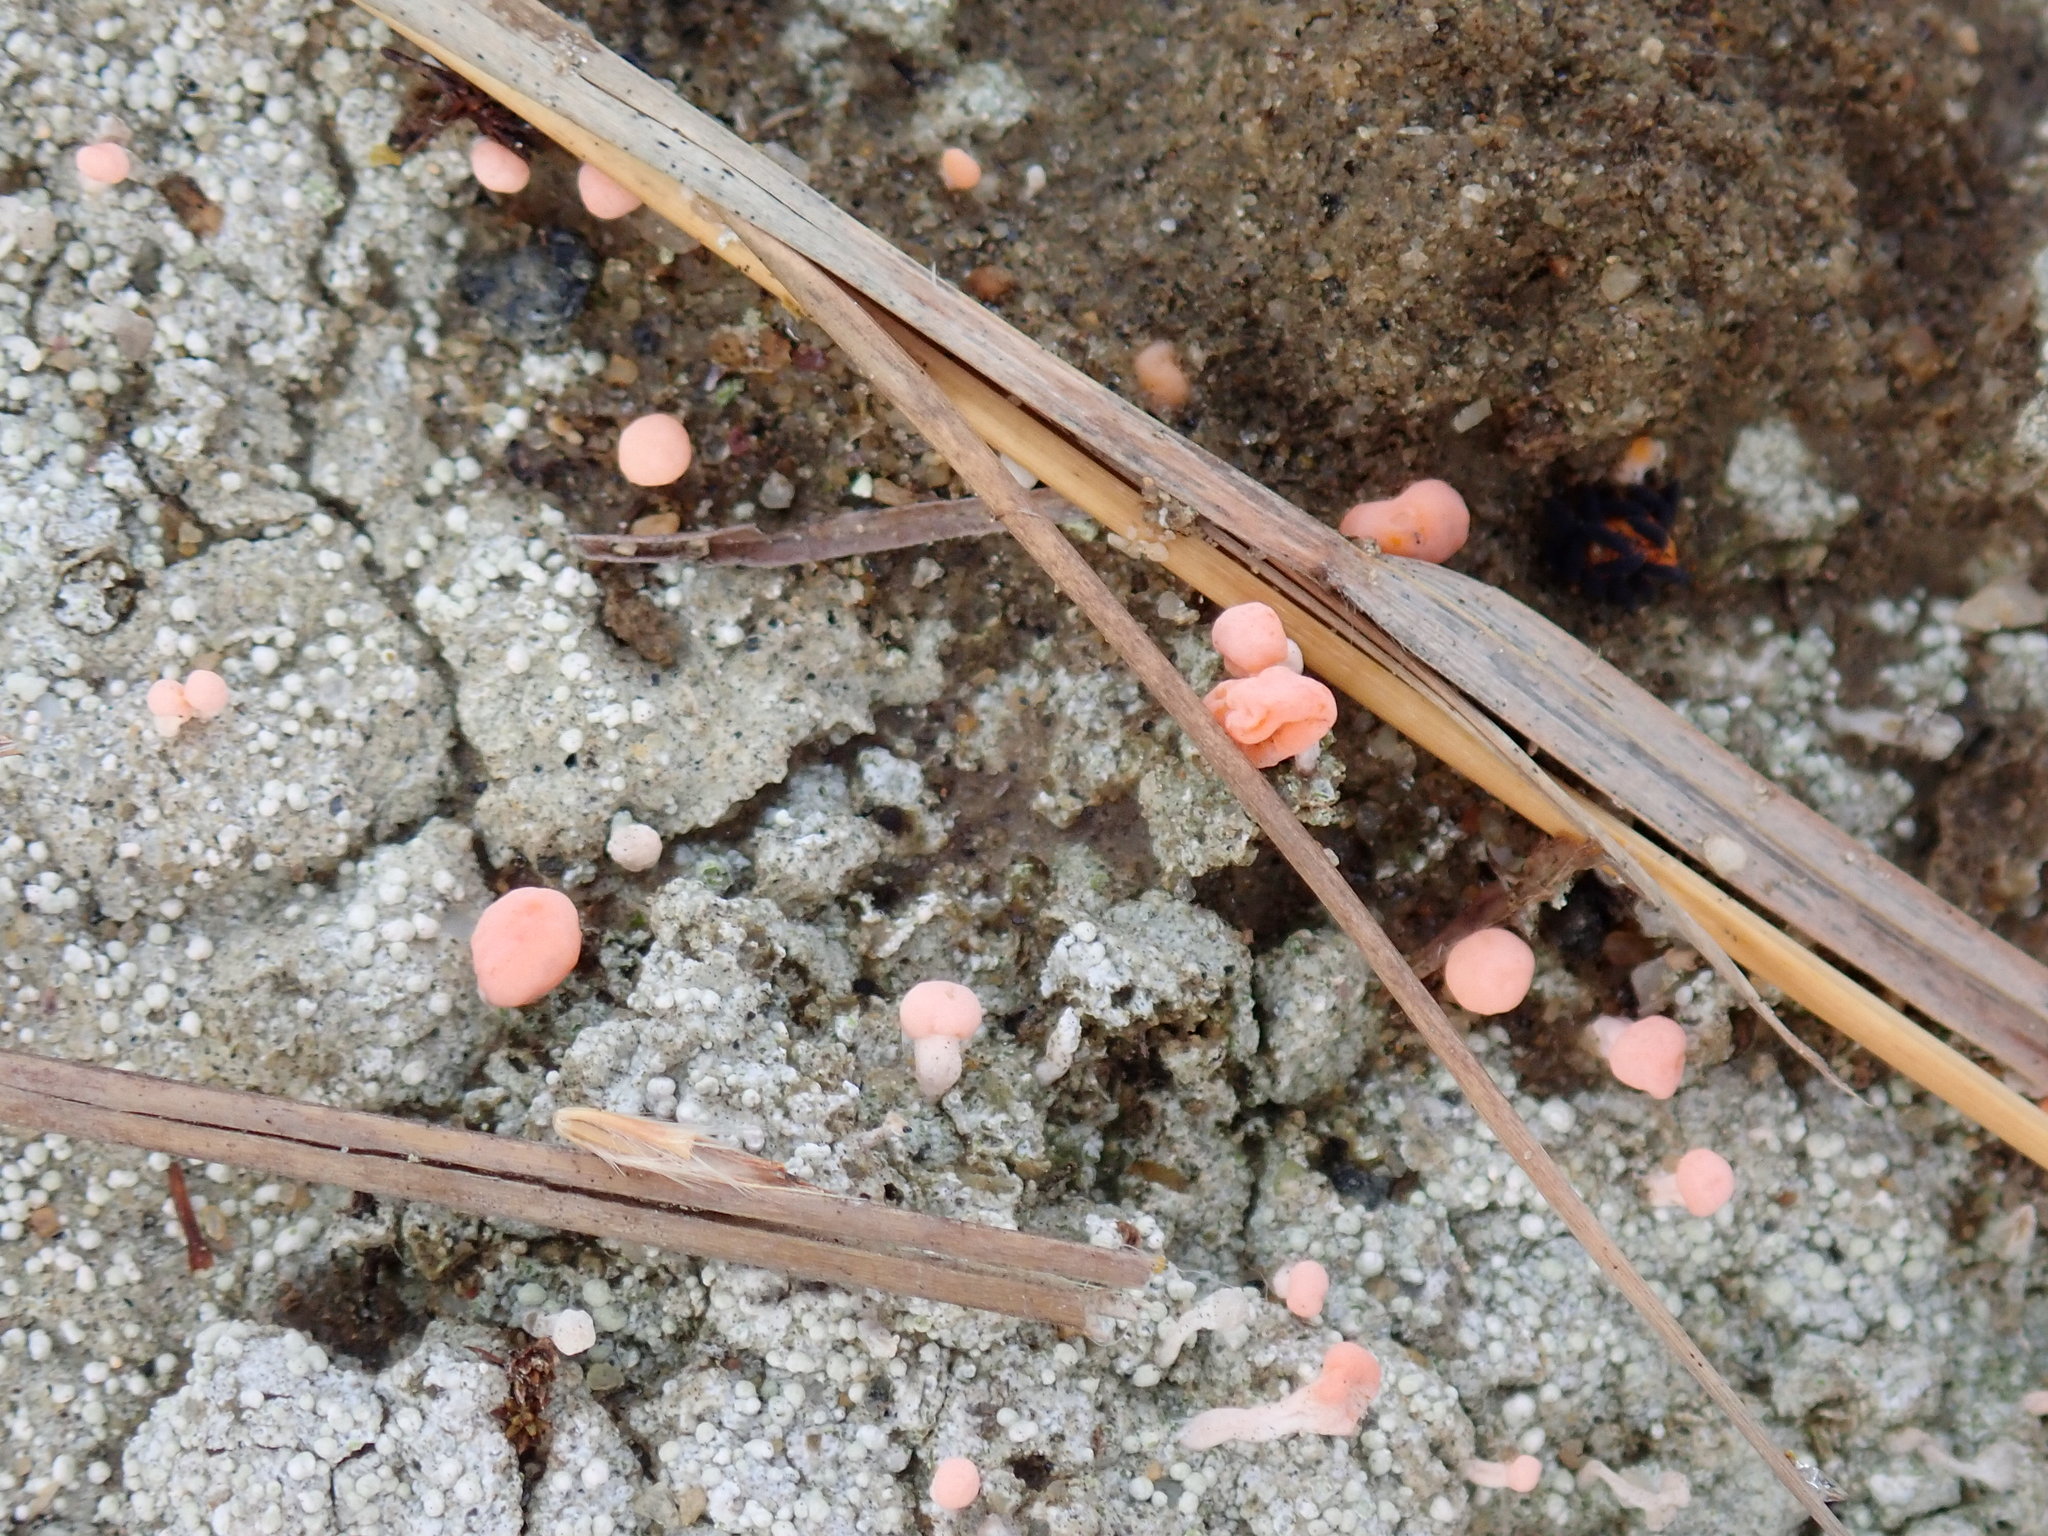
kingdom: Fungi
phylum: Ascomycota
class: Lecanoromycetes
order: Pertusariales
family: Icmadophilaceae
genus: Dibaeis
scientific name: Dibaeis baeomyces
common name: Pink earth lichen
